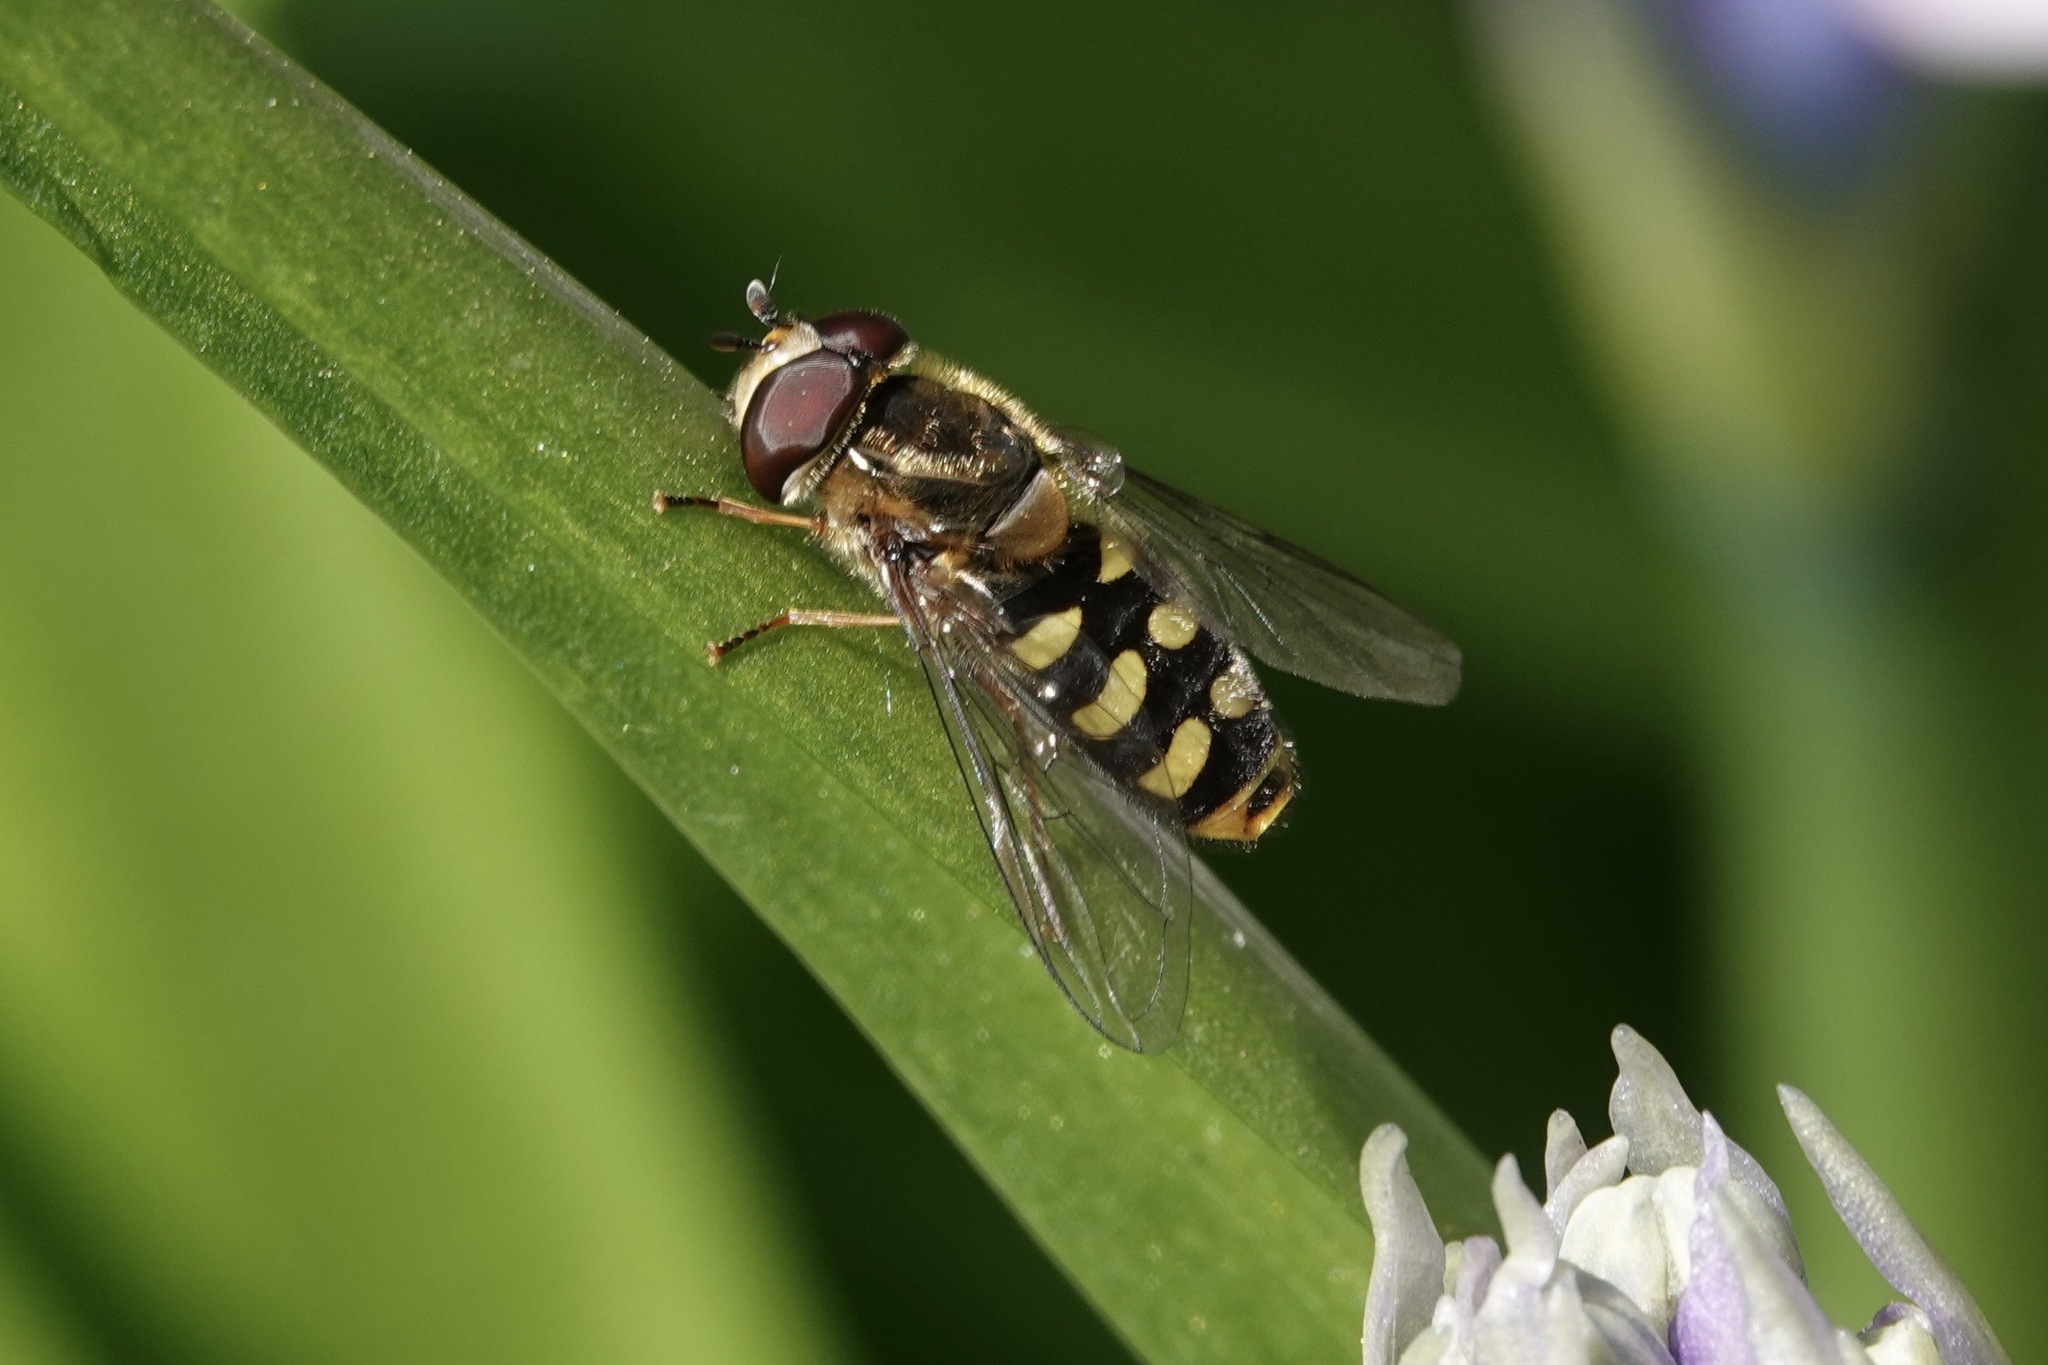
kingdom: Animalia
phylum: Arthropoda
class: Insecta
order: Diptera
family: Syrphidae
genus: Eupeodes
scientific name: Eupeodes
